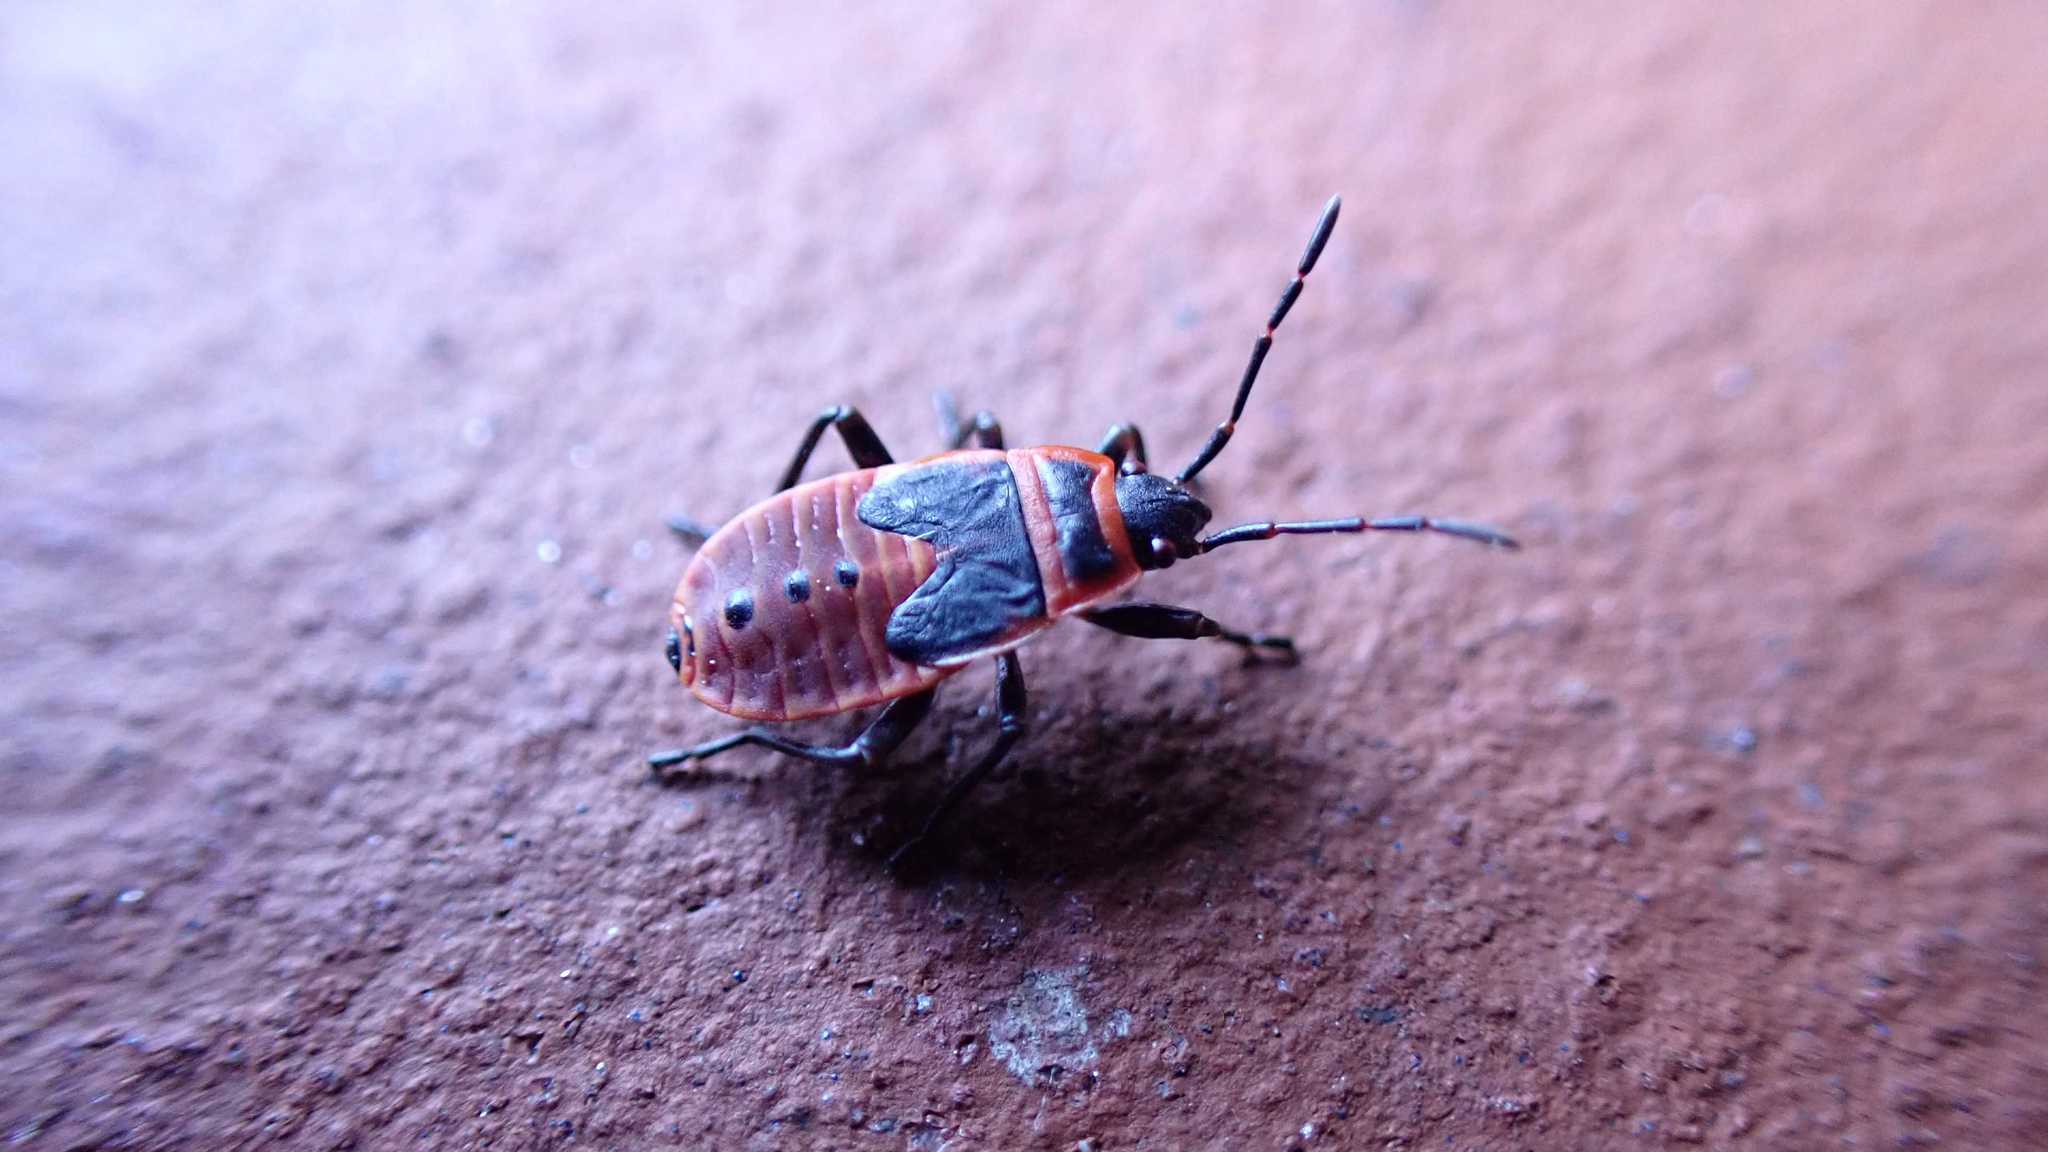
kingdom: Animalia
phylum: Arthropoda
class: Insecta
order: Hemiptera
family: Pyrrhocoridae
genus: Pyrrhocoris
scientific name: Pyrrhocoris apterus
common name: Firebug
